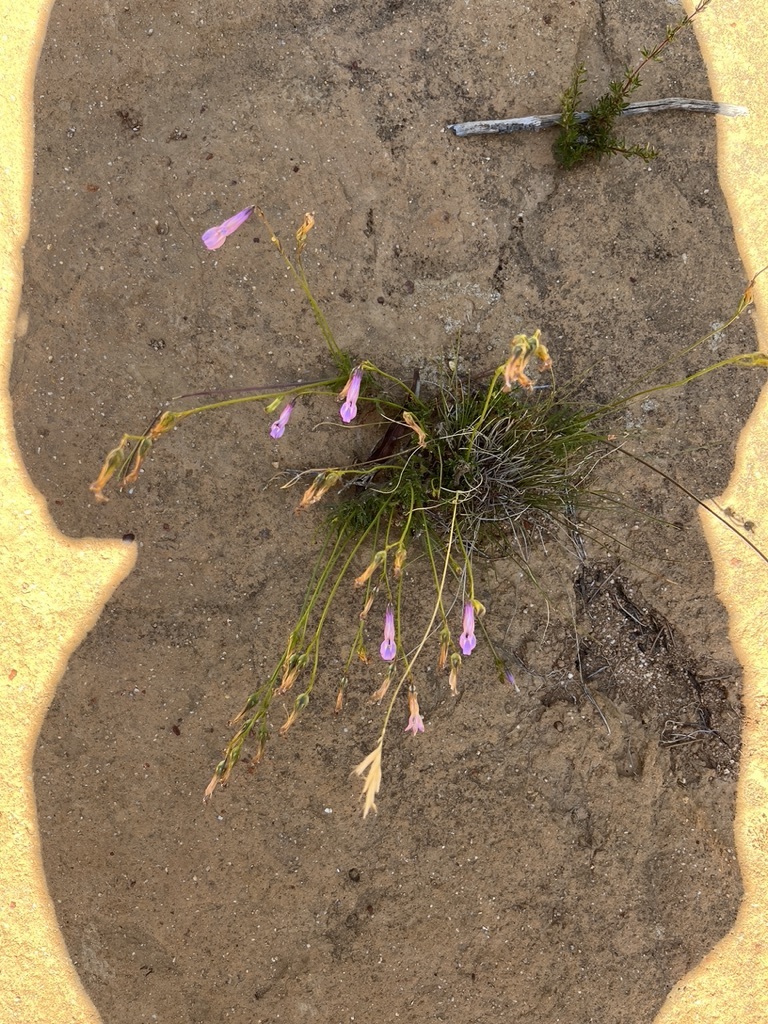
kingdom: Plantae
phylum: Tracheophyta
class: Magnoliopsida
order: Asterales
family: Campanulaceae
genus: Lobelia
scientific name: Lobelia coronopifolia
